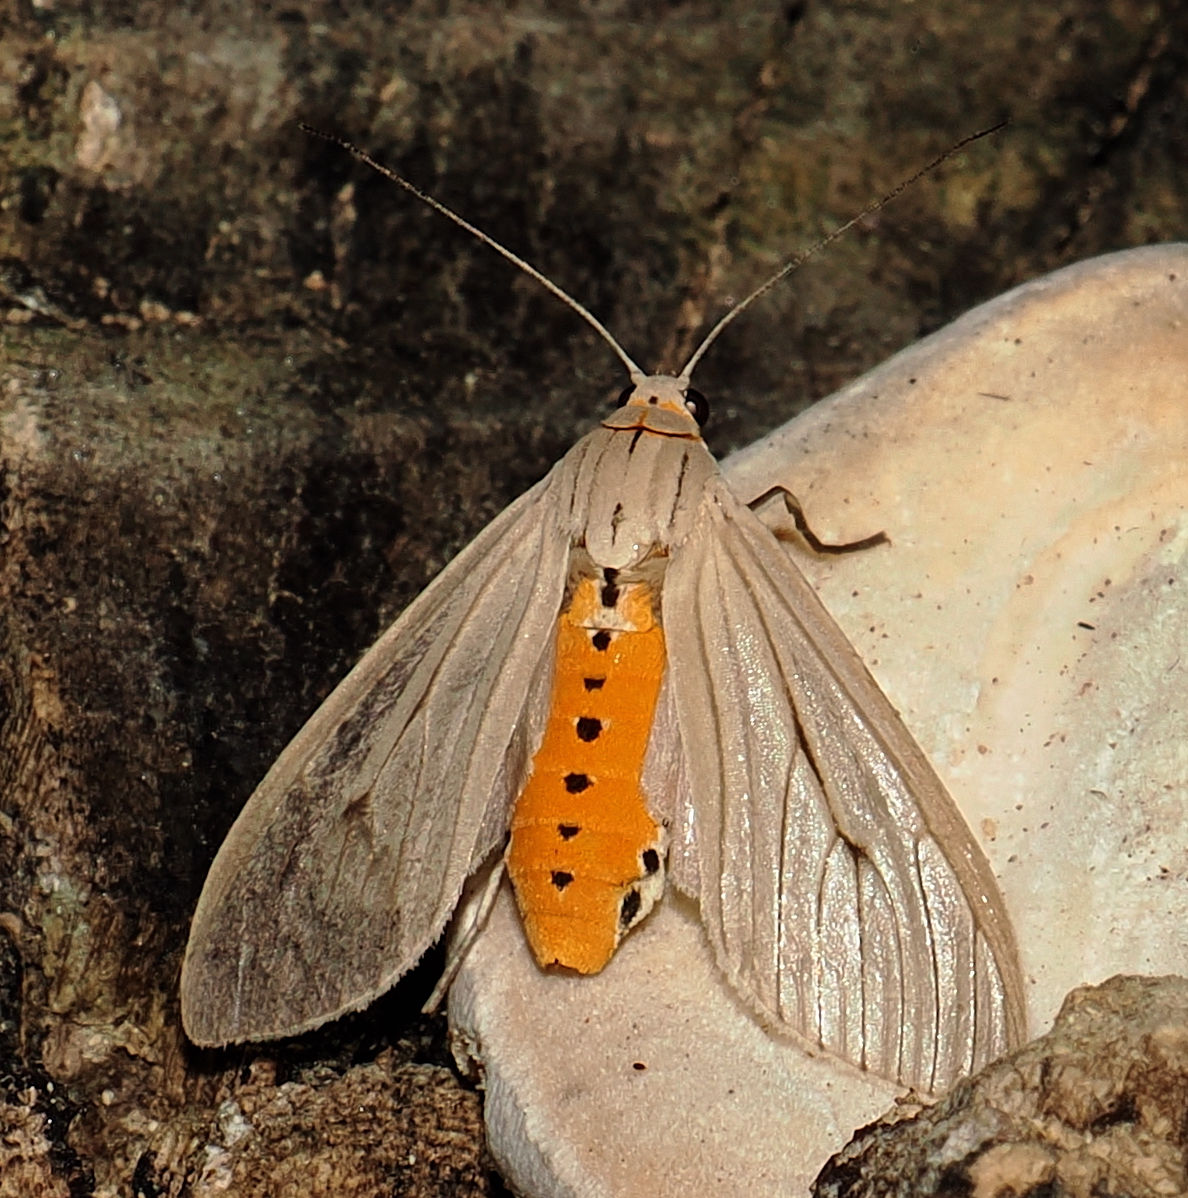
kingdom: Animalia
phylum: Arthropoda
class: Insecta
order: Lepidoptera
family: Erebidae
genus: Arctagyrta
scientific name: Arctagyrta Agaraea semivitrea
